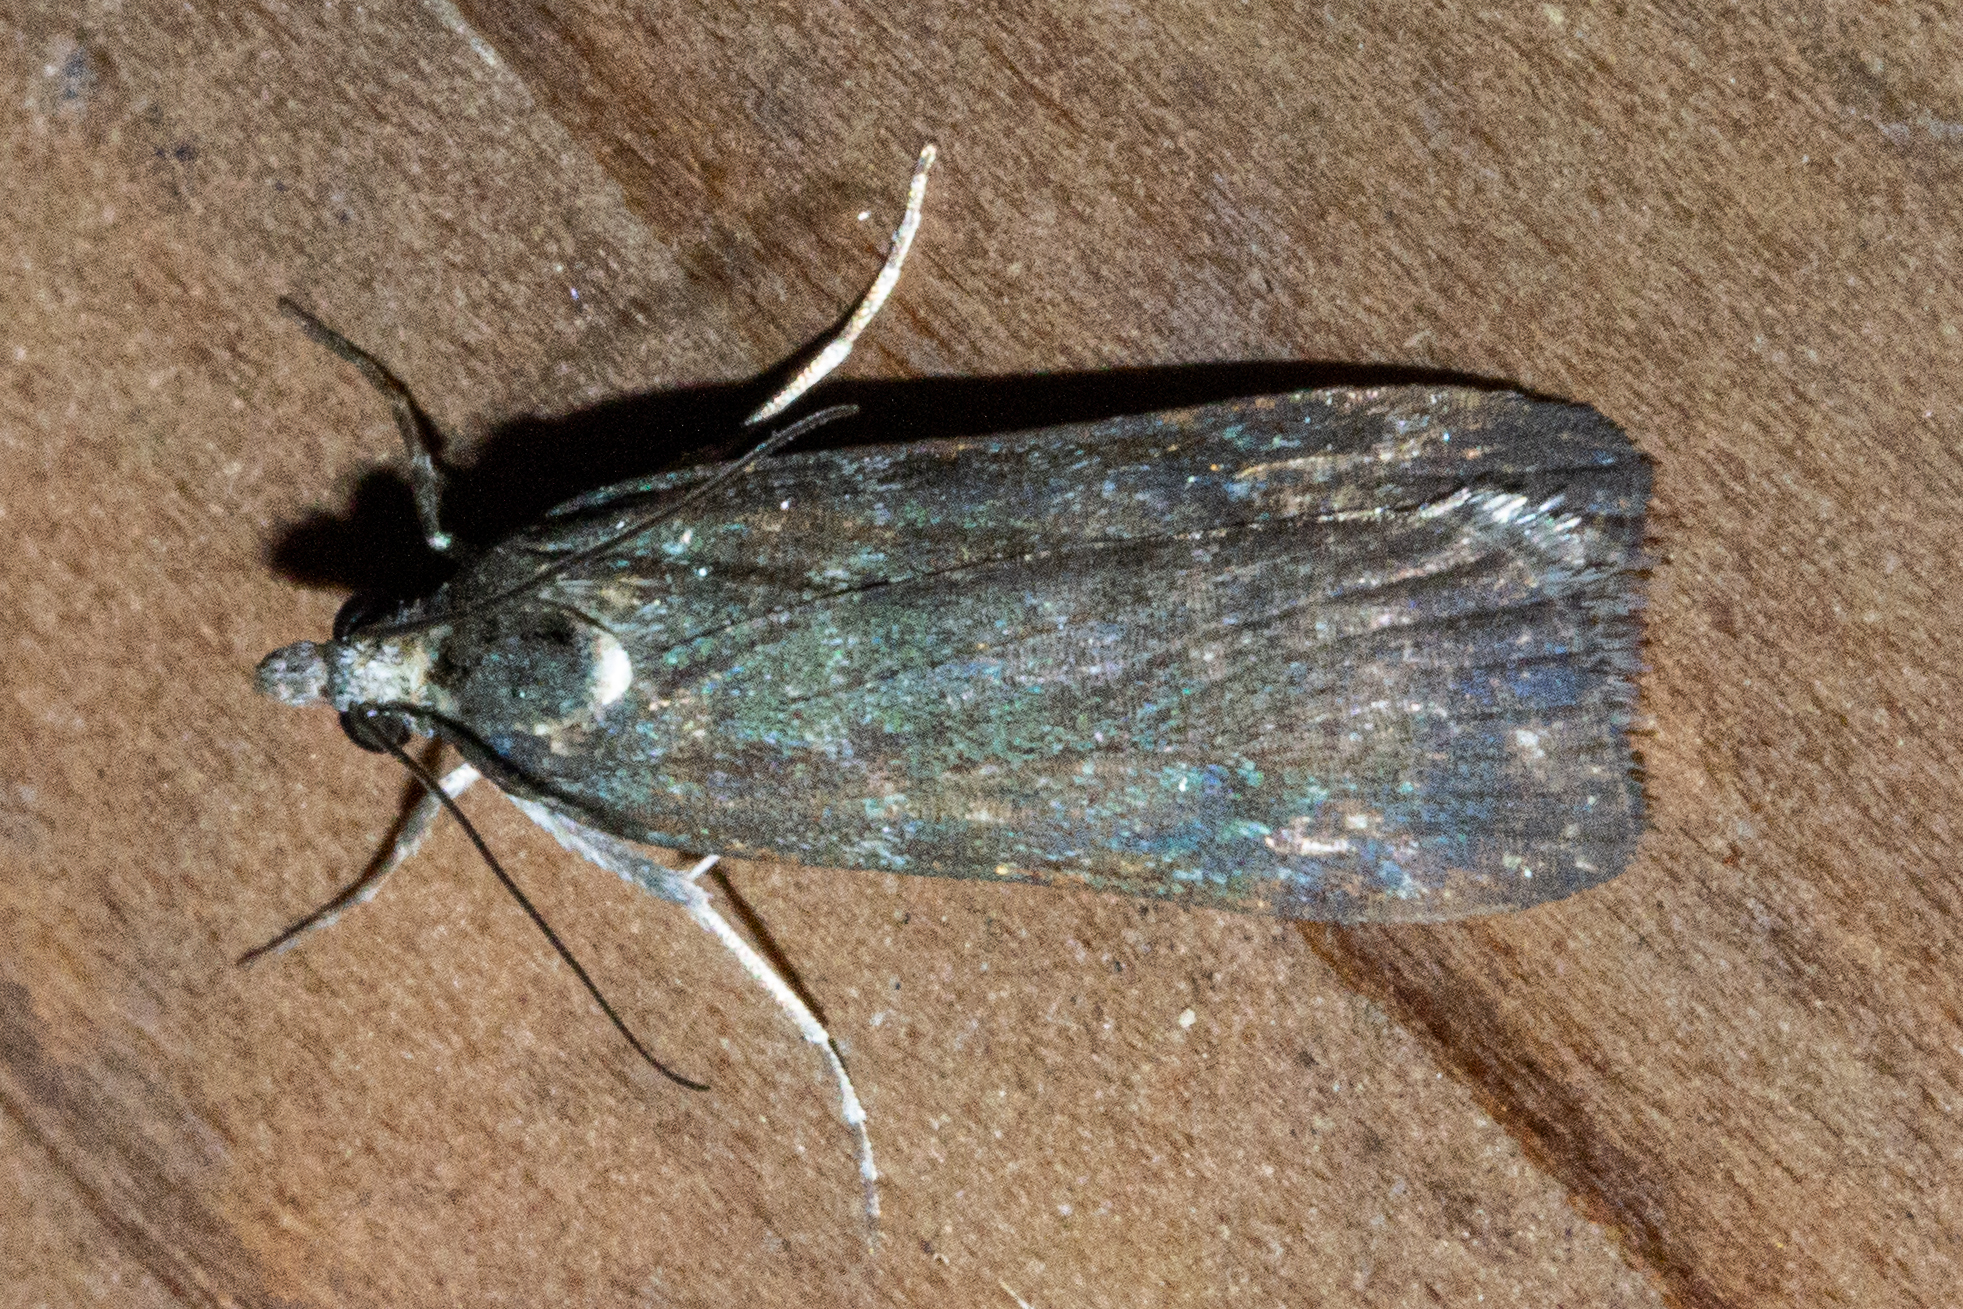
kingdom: Animalia
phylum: Arthropoda
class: Insecta
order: Lepidoptera
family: Crambidae
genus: Eudonia
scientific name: Eudonia cataxesta
